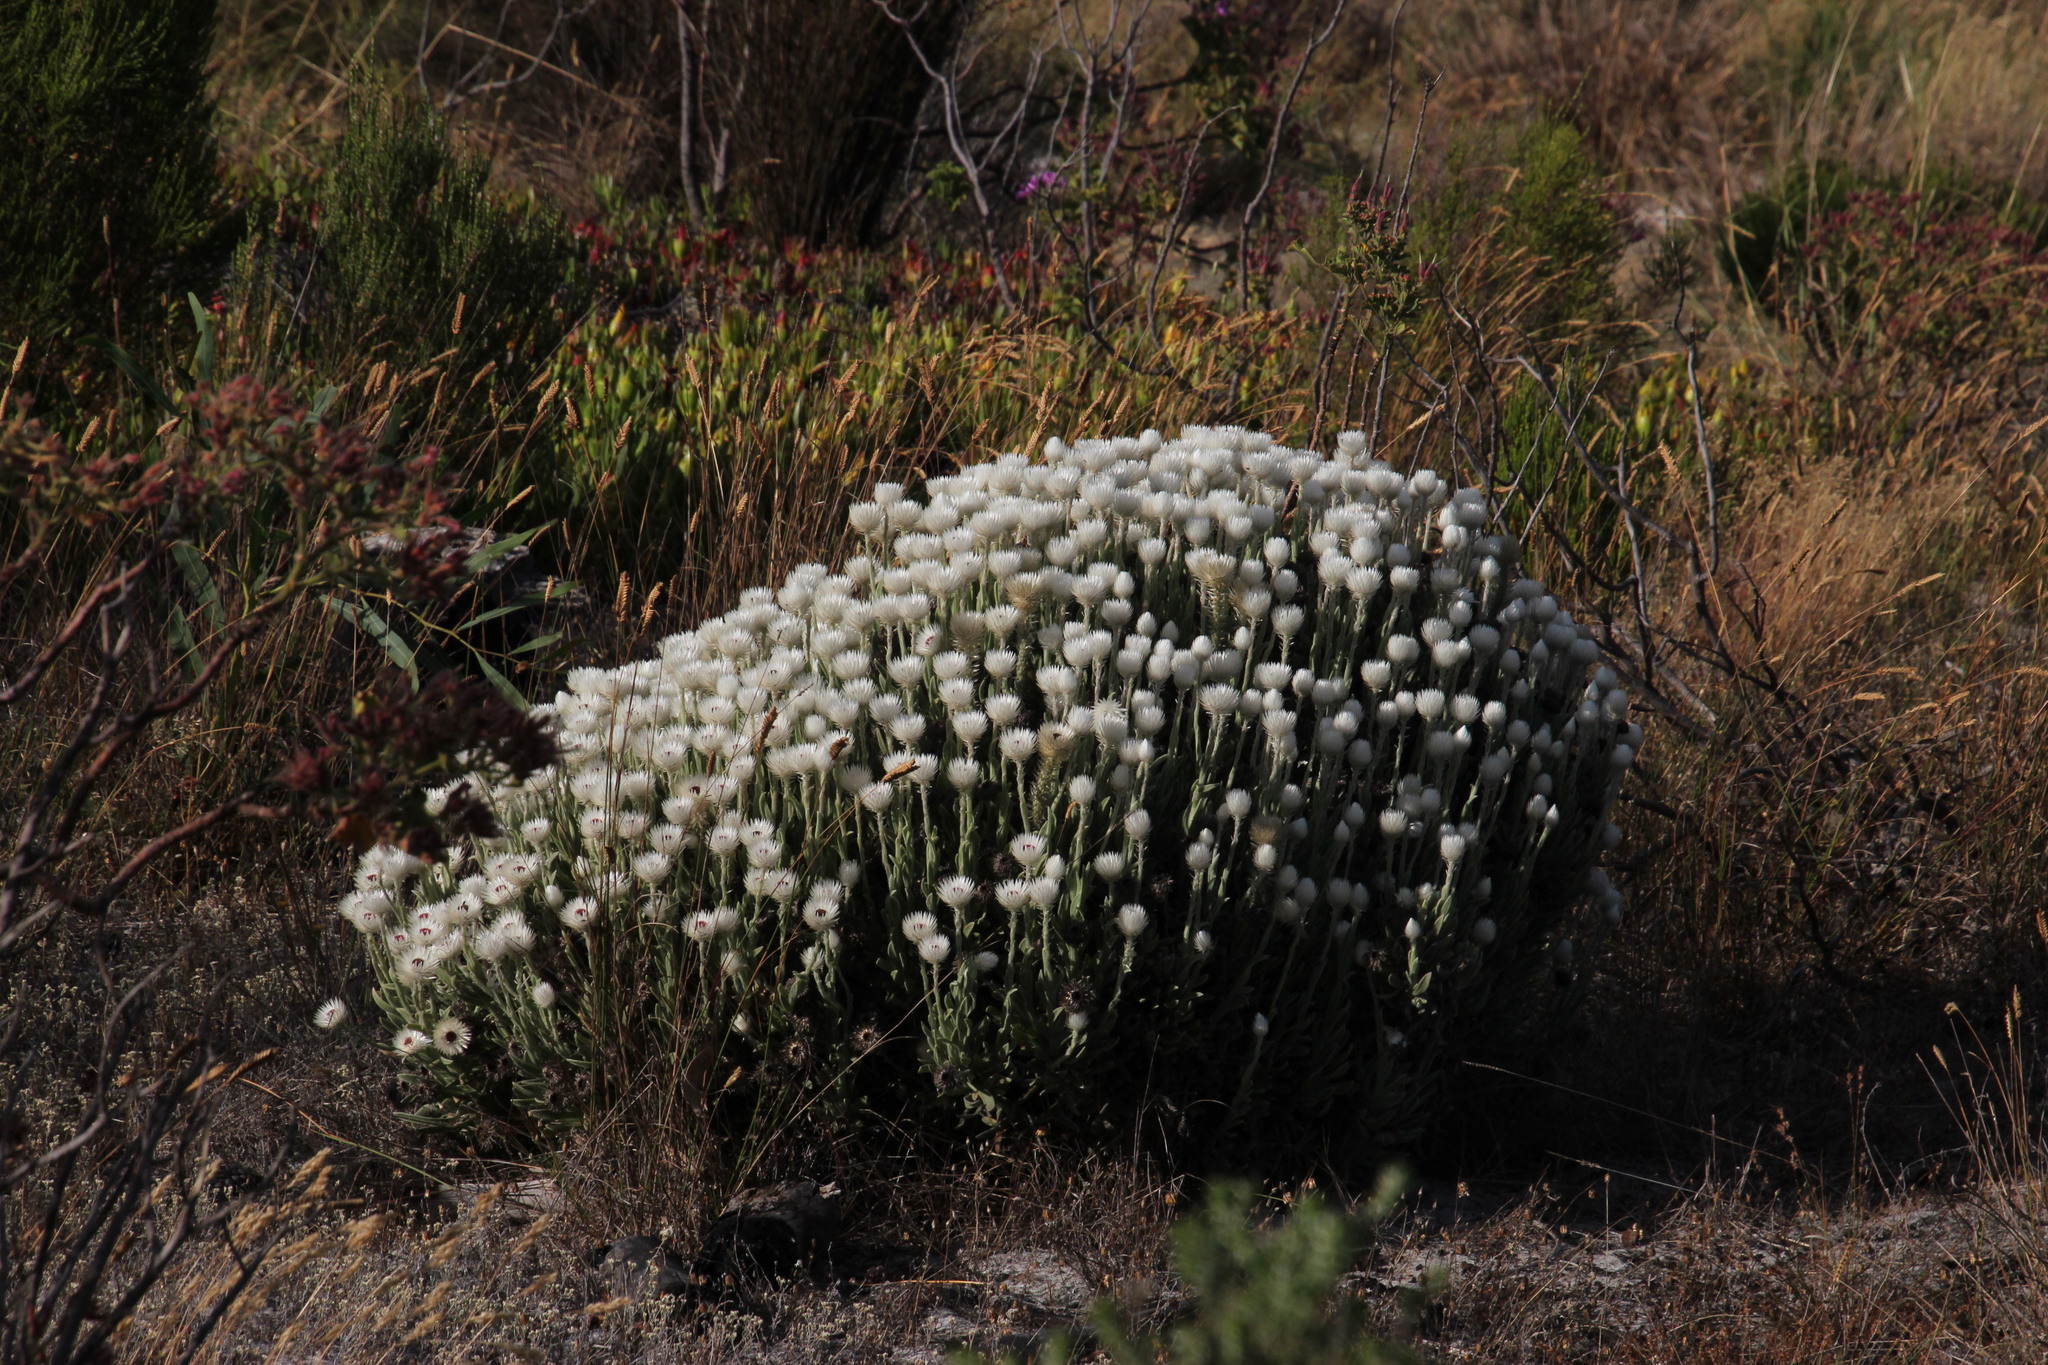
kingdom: Plantae
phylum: Tracheophyta
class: Magnoliopsida
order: Asterales
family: Asteraceae
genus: Syncarpha
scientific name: Syncarpha vestita
